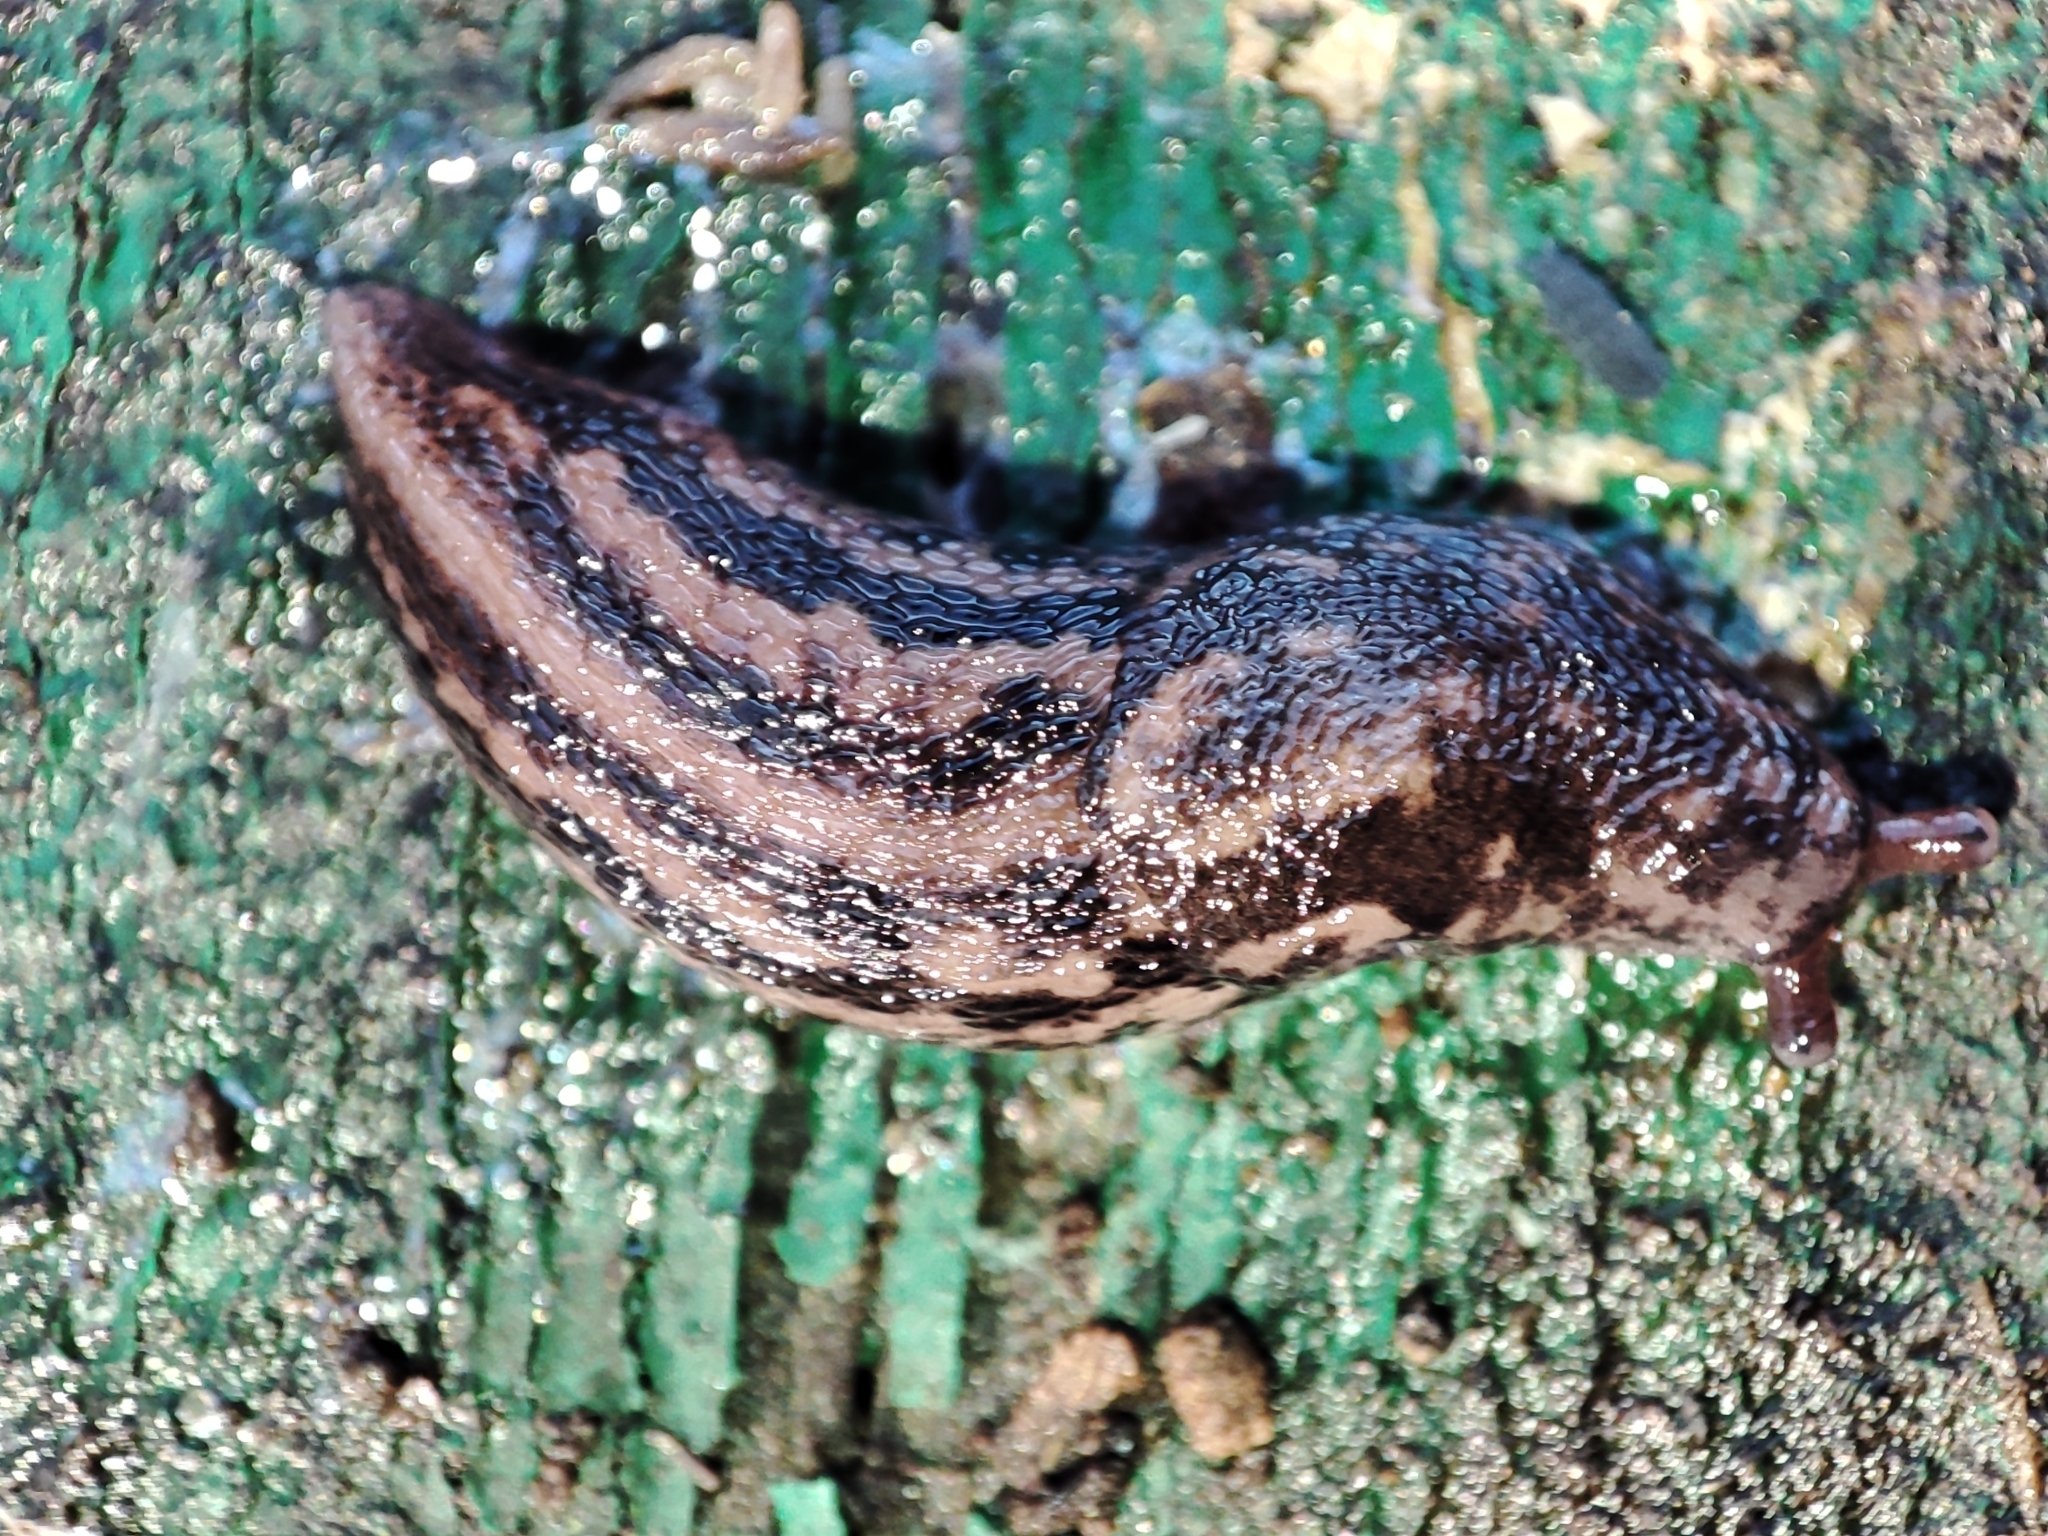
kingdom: Animalia
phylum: Mollusca
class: Gastropoda
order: Stylommatophora
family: Limacidae
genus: Limax
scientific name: Limax maximus
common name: Great grey slug
